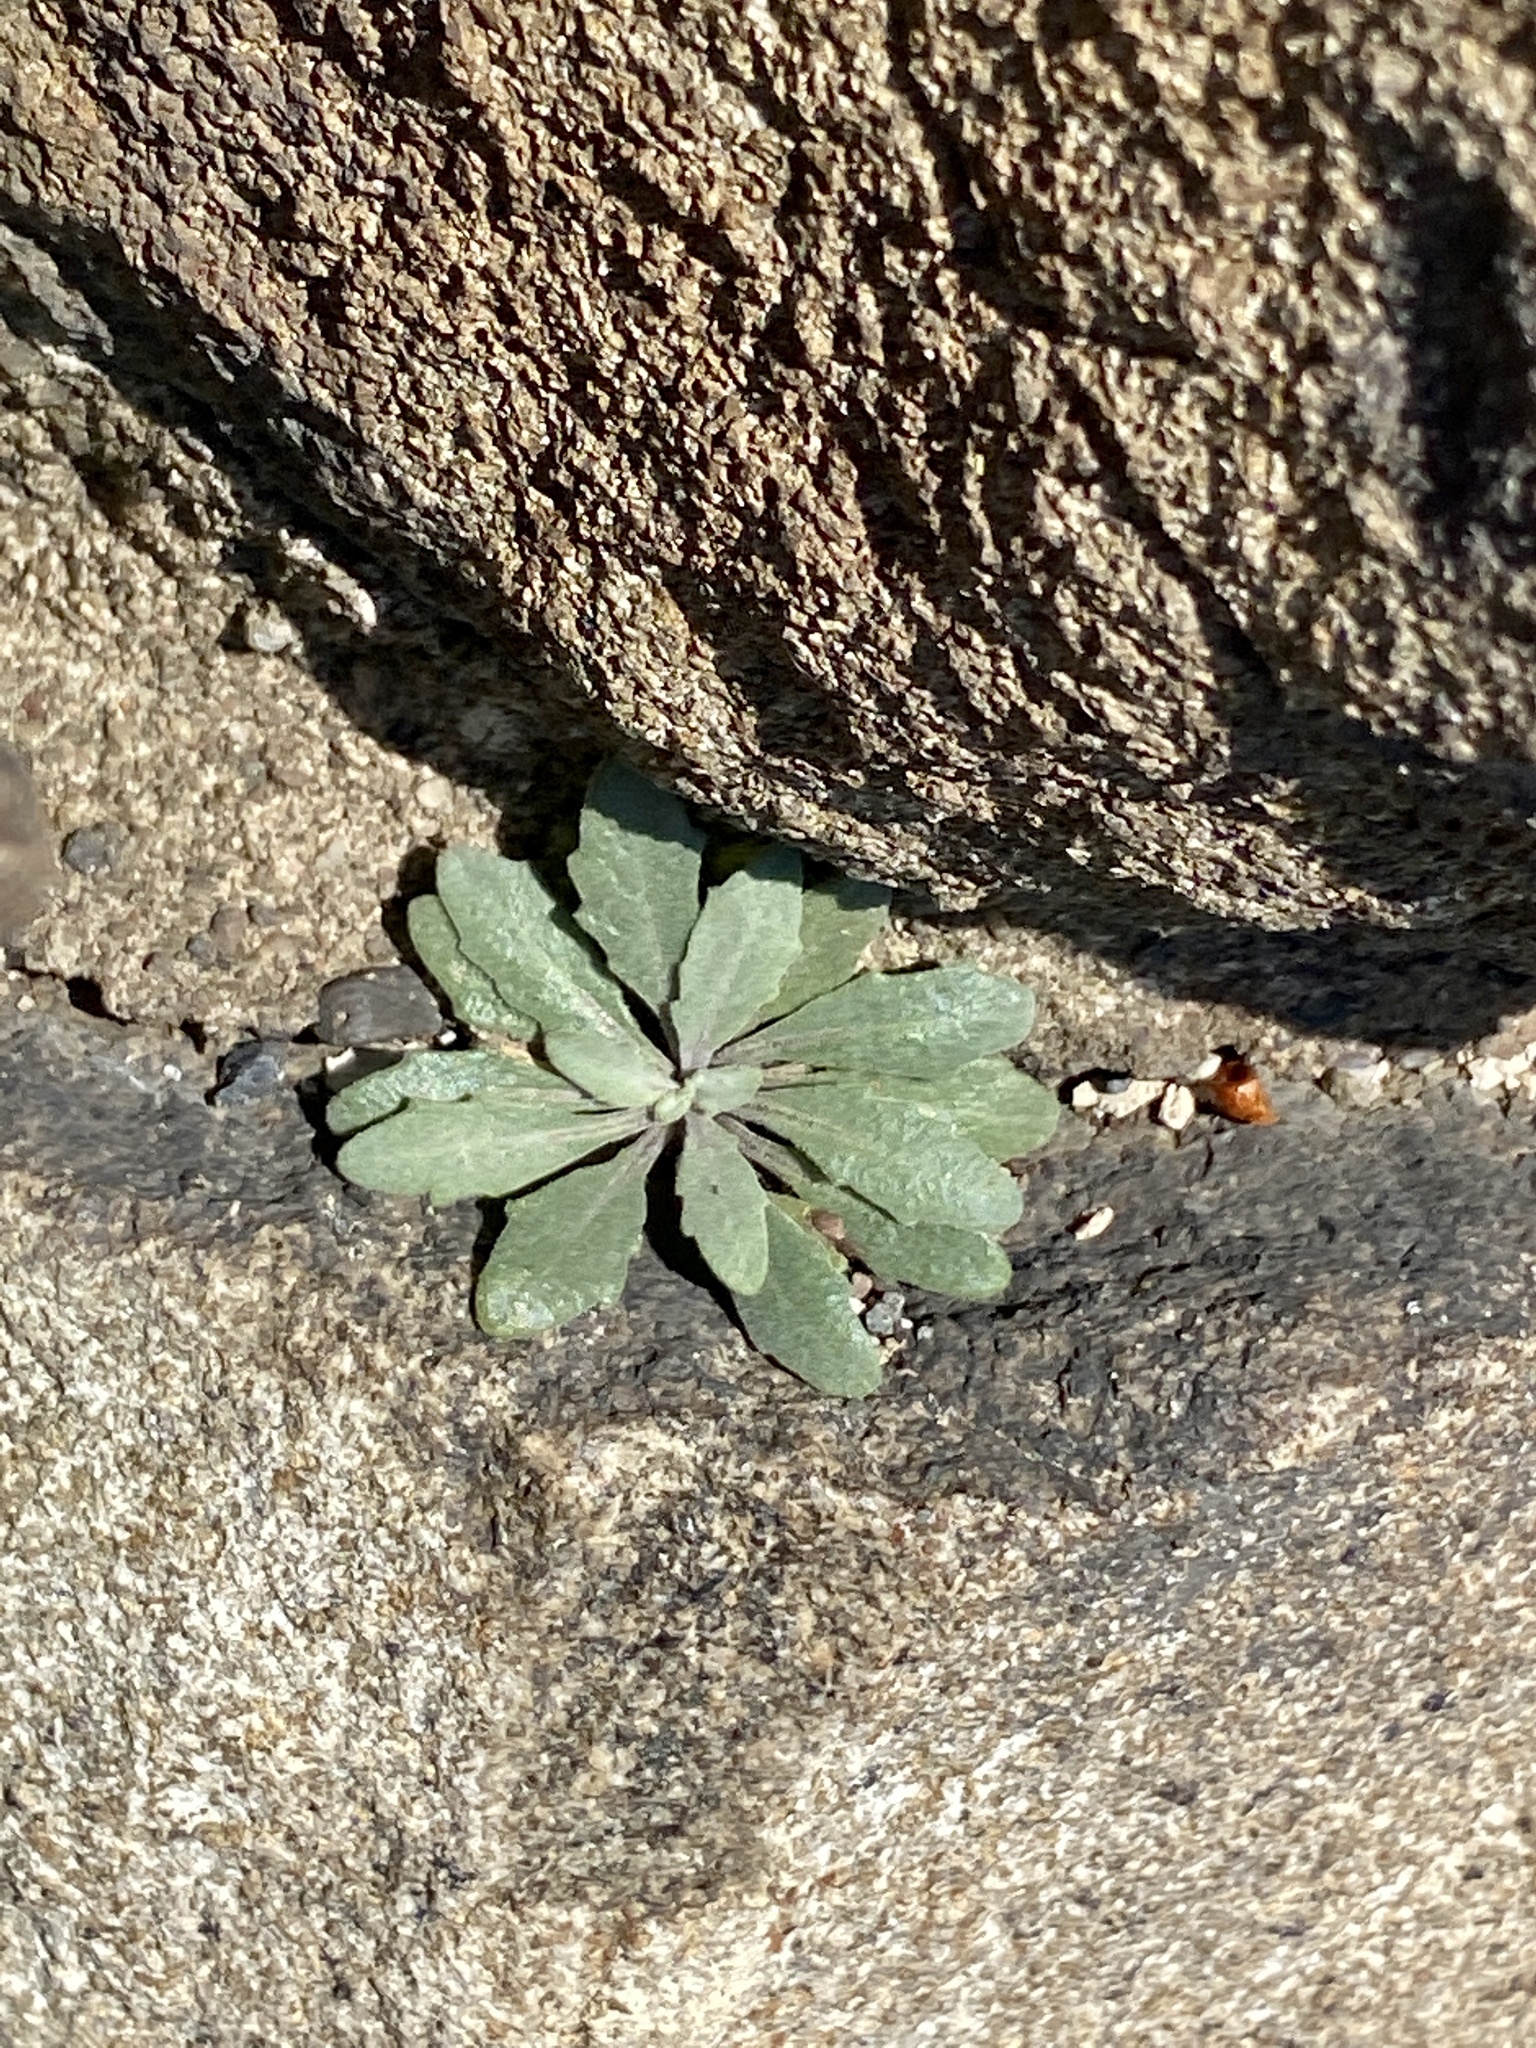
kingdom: Plantae
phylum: Tracheophyta
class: Magnoliopsida
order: Brassicales
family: Brassicaceae
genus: Arabidopsis
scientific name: Arabidopsis lyrata
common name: Lyrate rockcress
